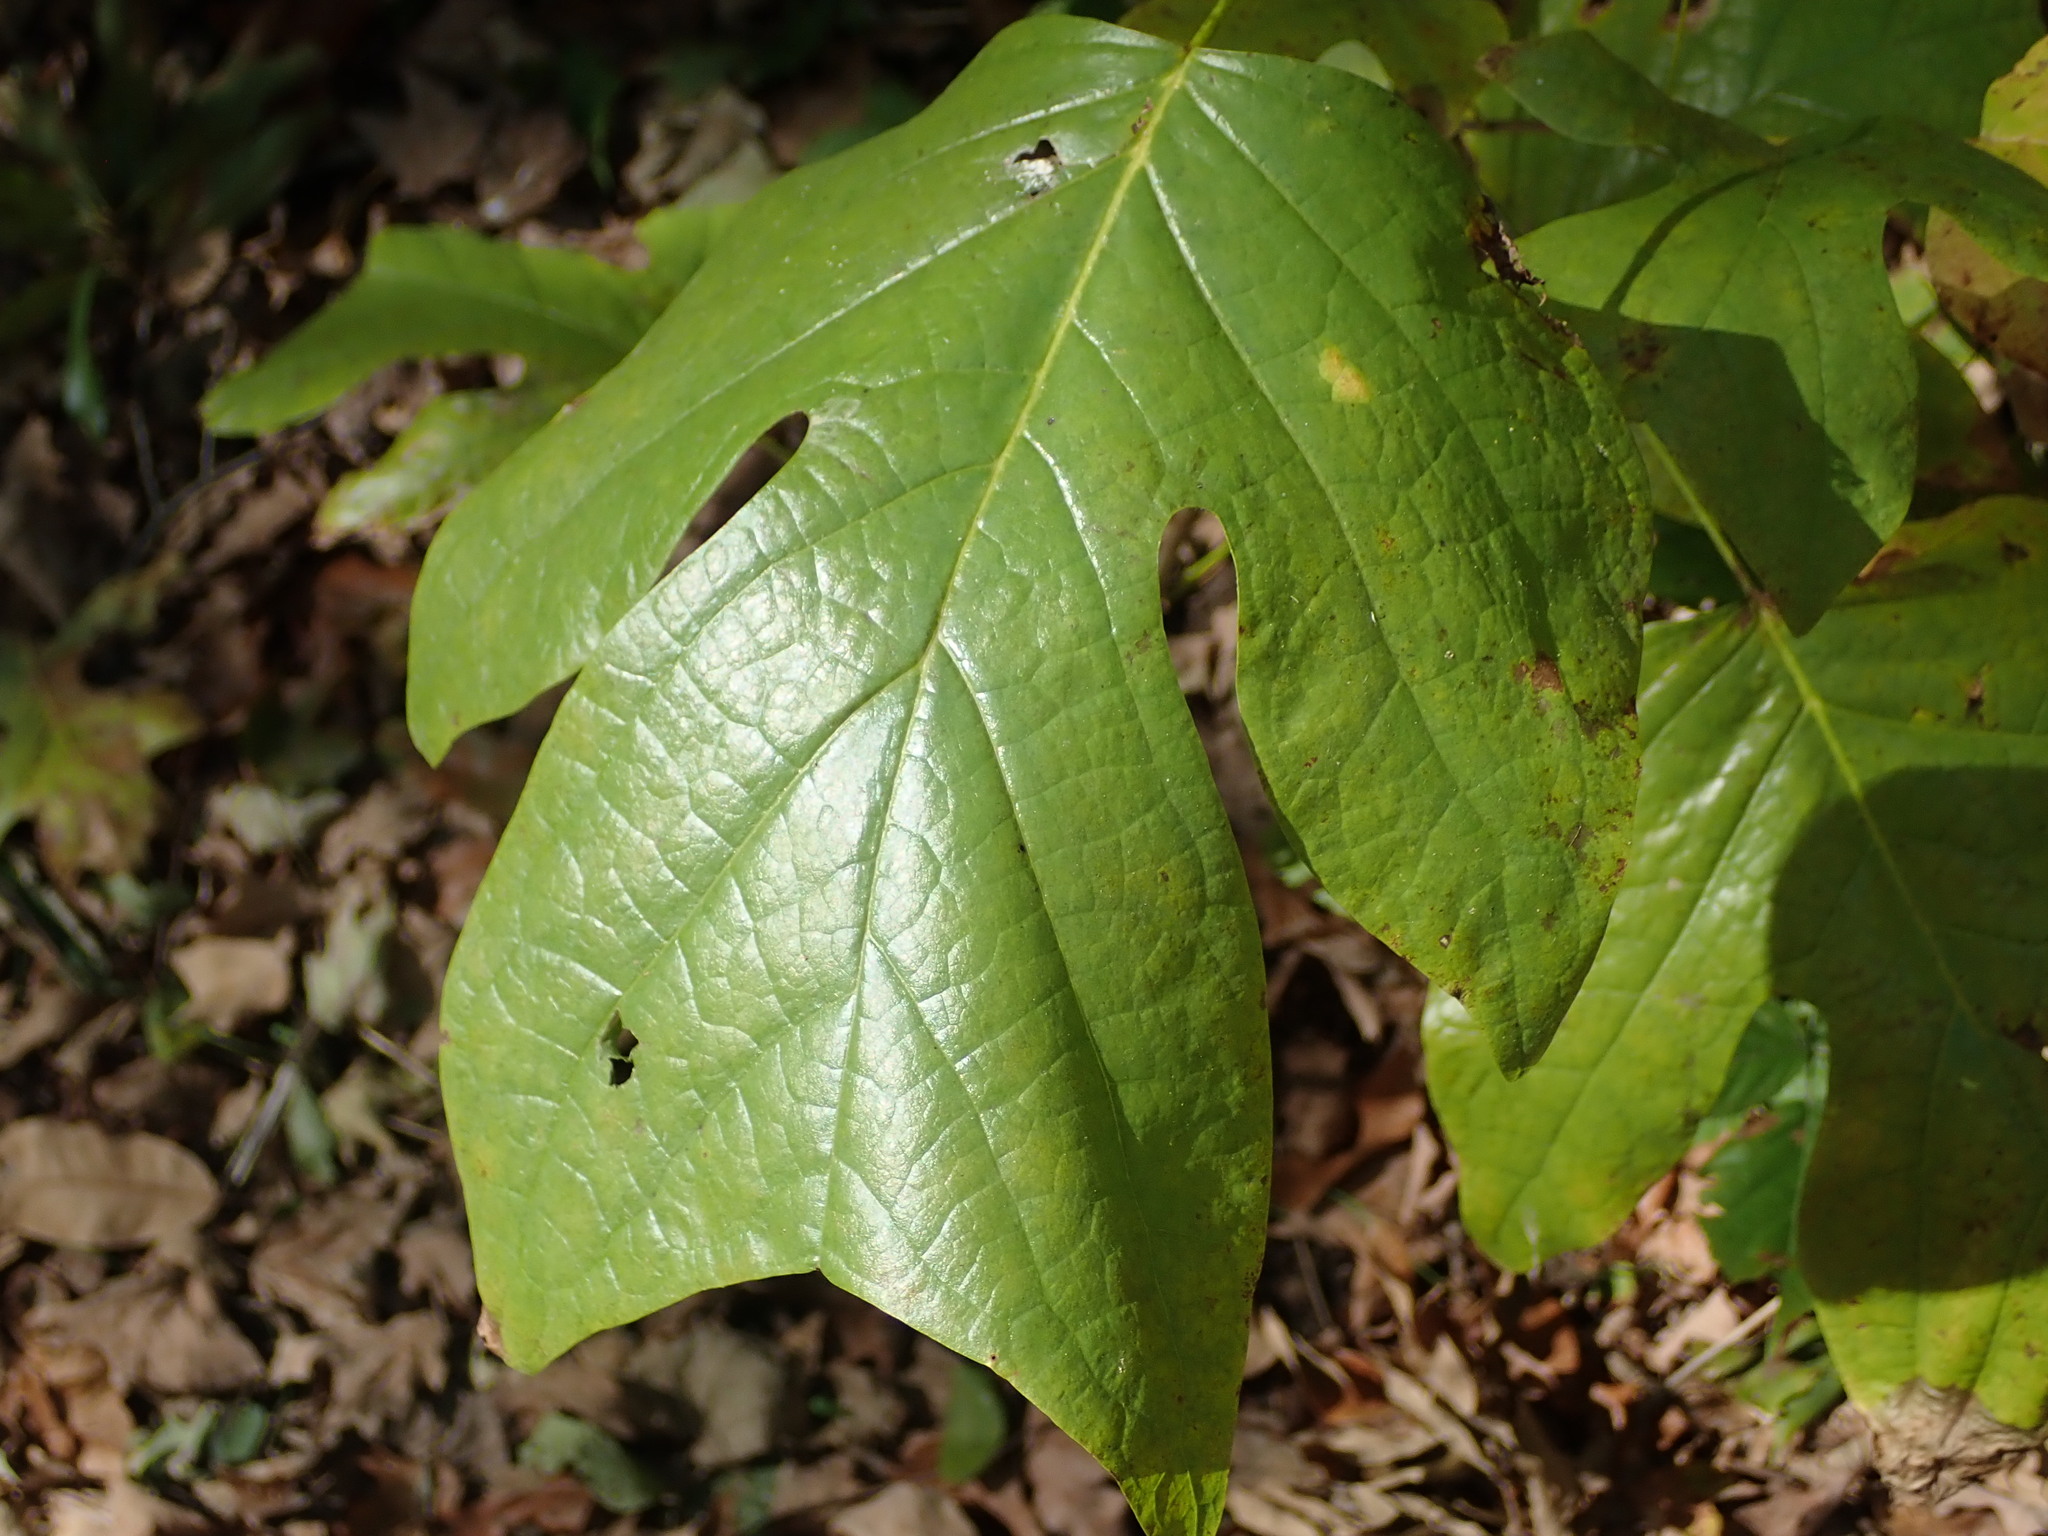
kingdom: Plantae
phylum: Tracheophyta
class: Magnoliopsida
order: Magnoliales
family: Magnoliaceae
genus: Liriodendron
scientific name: Liriodendron tulipifera
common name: Tulip tree
